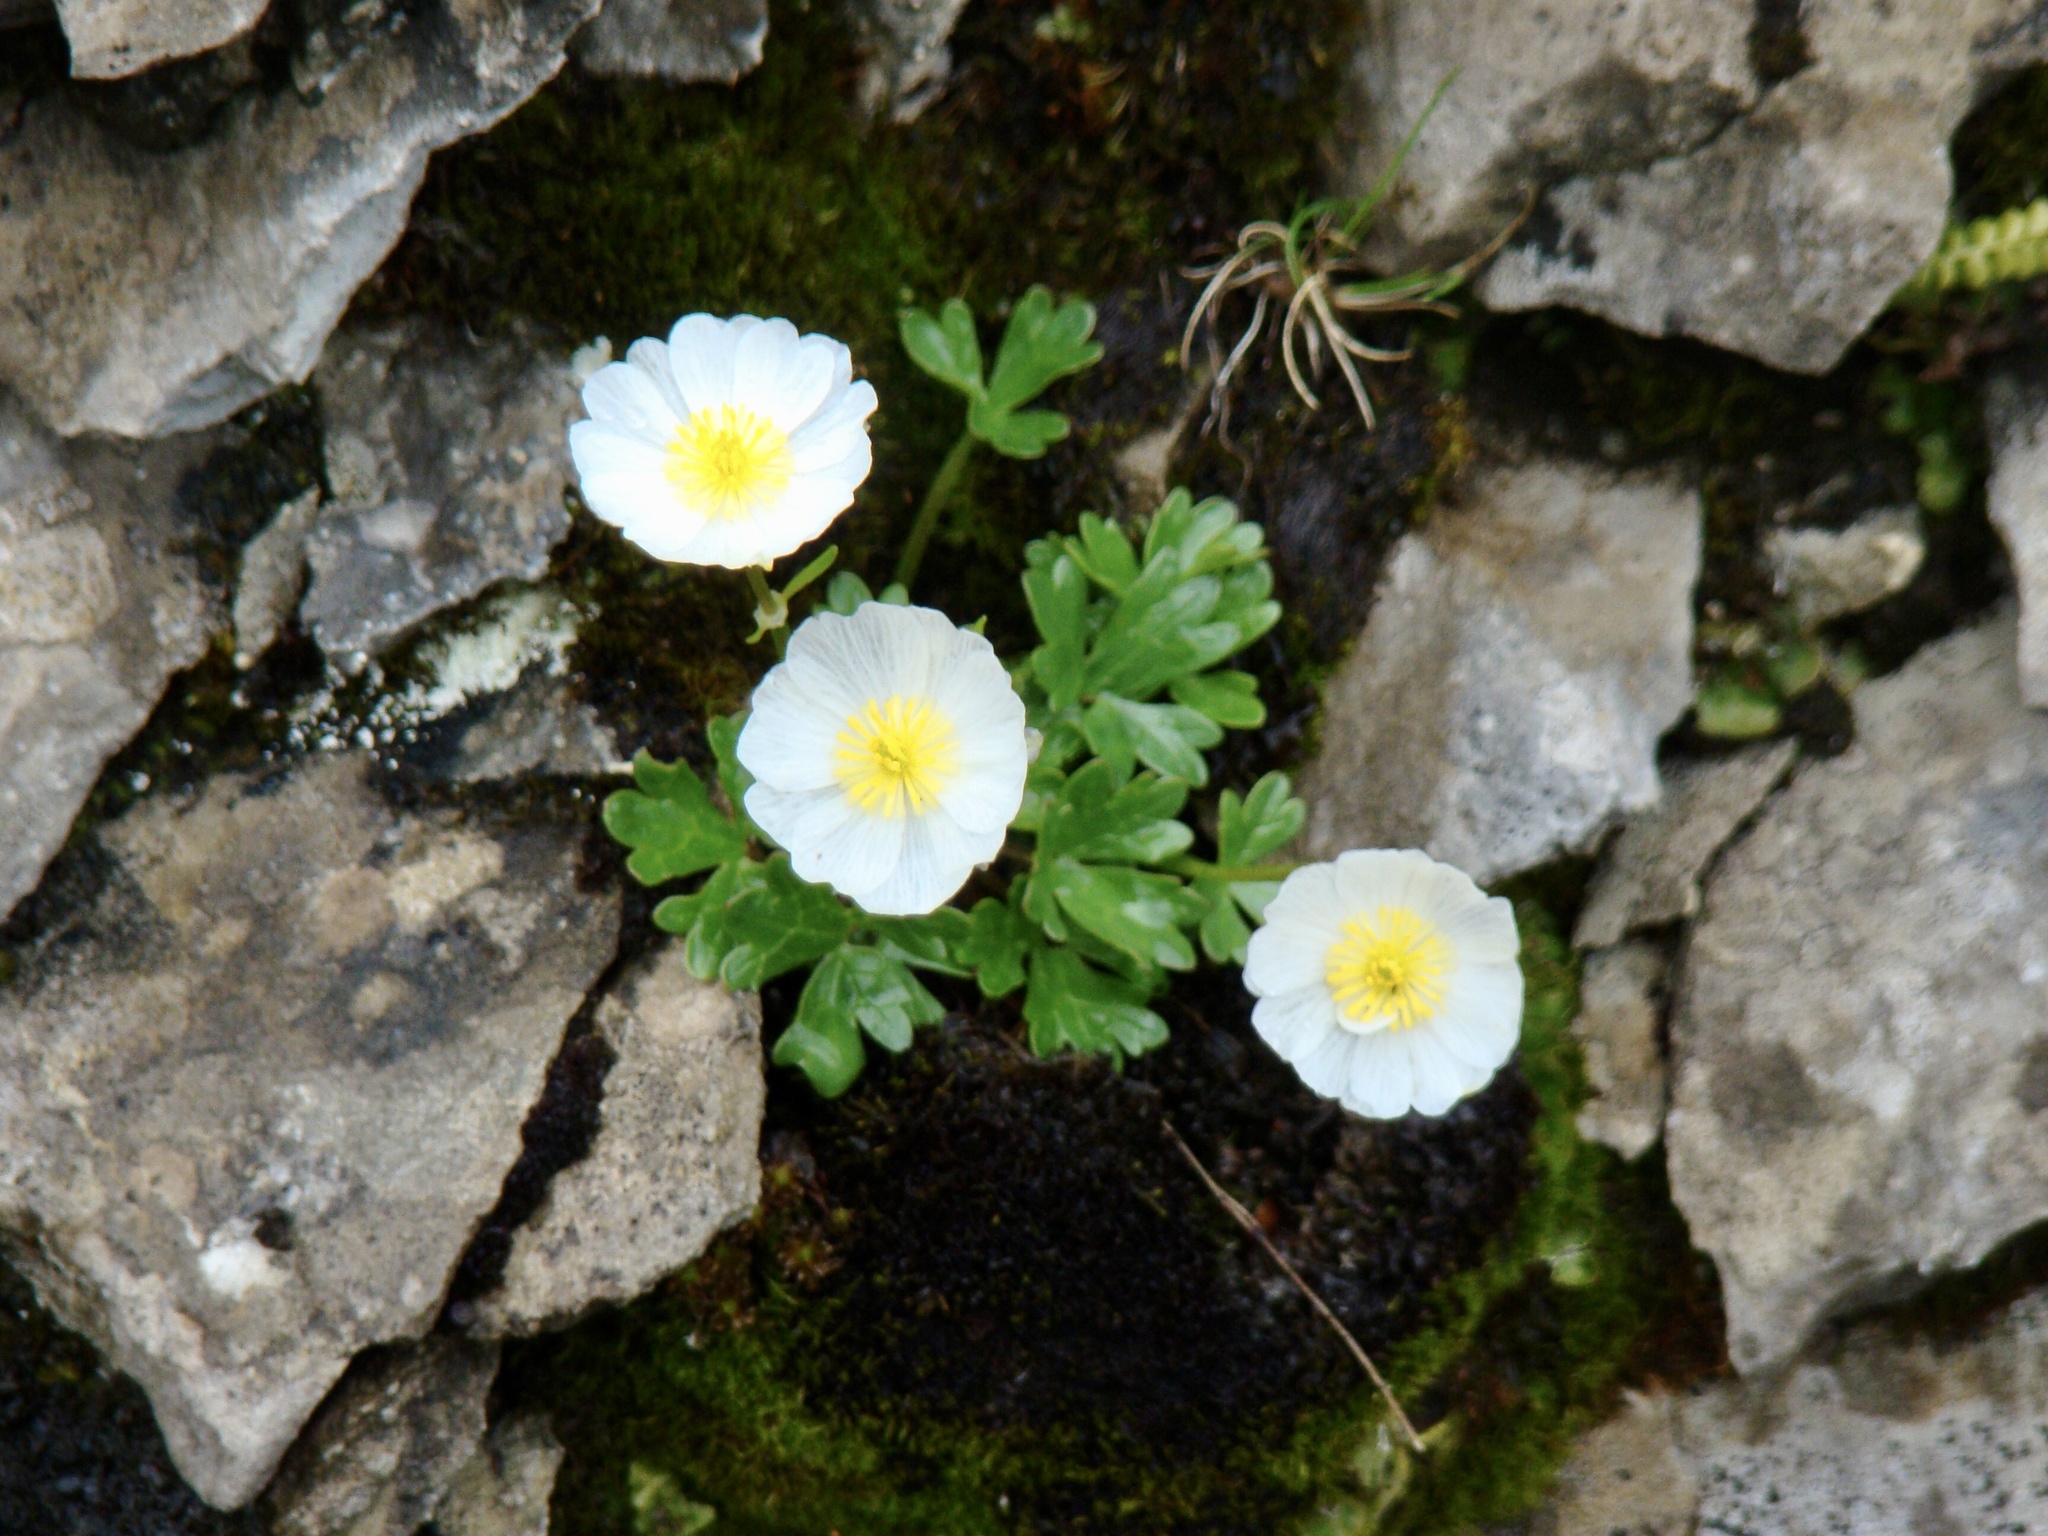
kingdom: Plantae
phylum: Tracheophyta
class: Magnoliopsida
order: Ranunculales
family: Ranunculaceae
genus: Ranunculus
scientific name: Ranunculus glacialis
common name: Glacier buttercup
